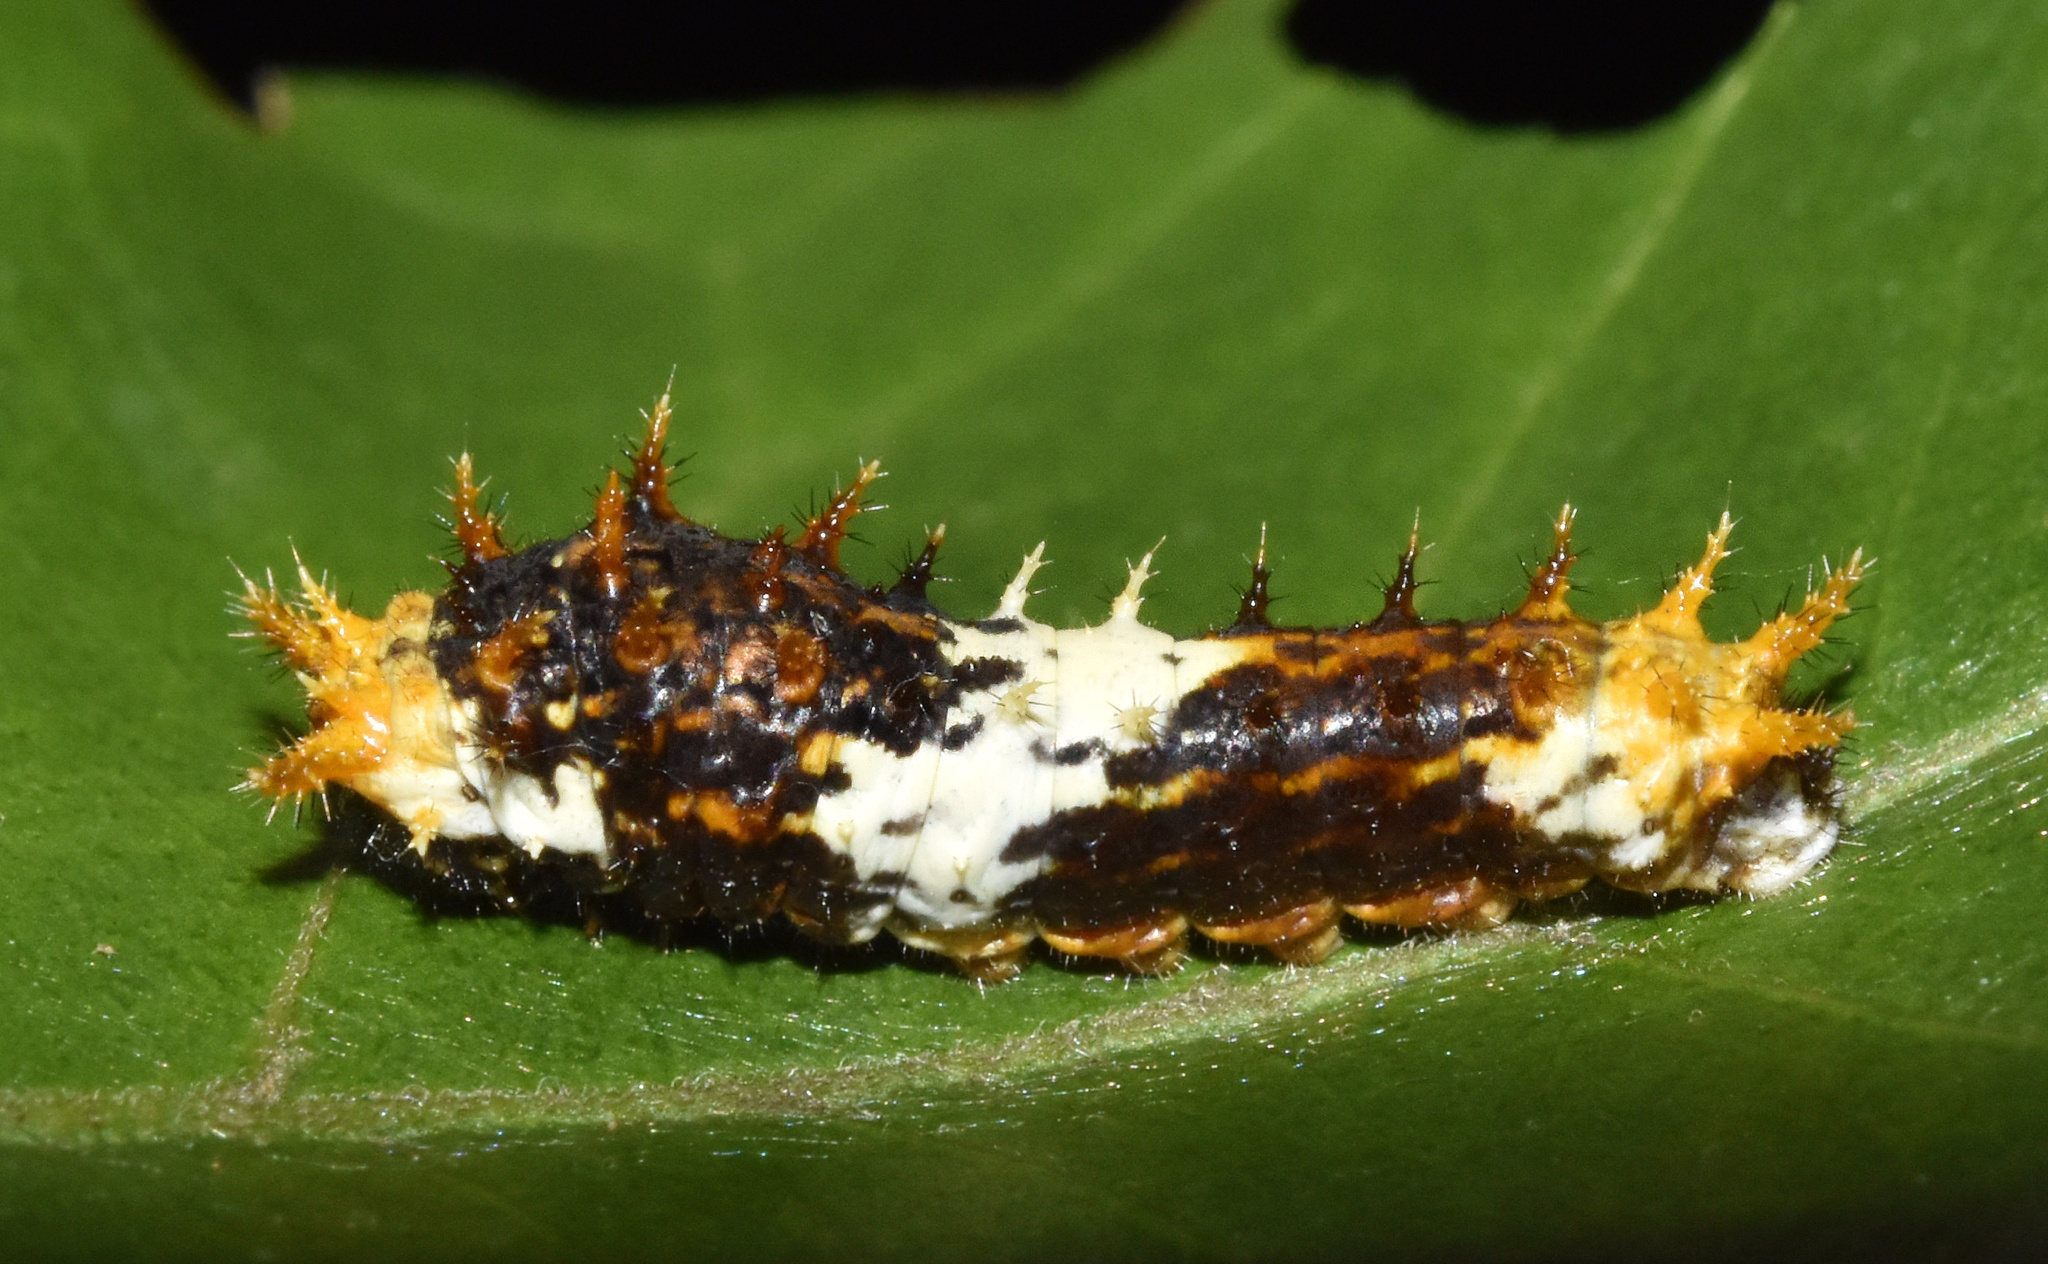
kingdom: Animalia
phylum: Arthropoda
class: Insecta
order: Lepidoptera
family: Papilionidae
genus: Papilio
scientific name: Papilio demodocus
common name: Christmas butterfly
